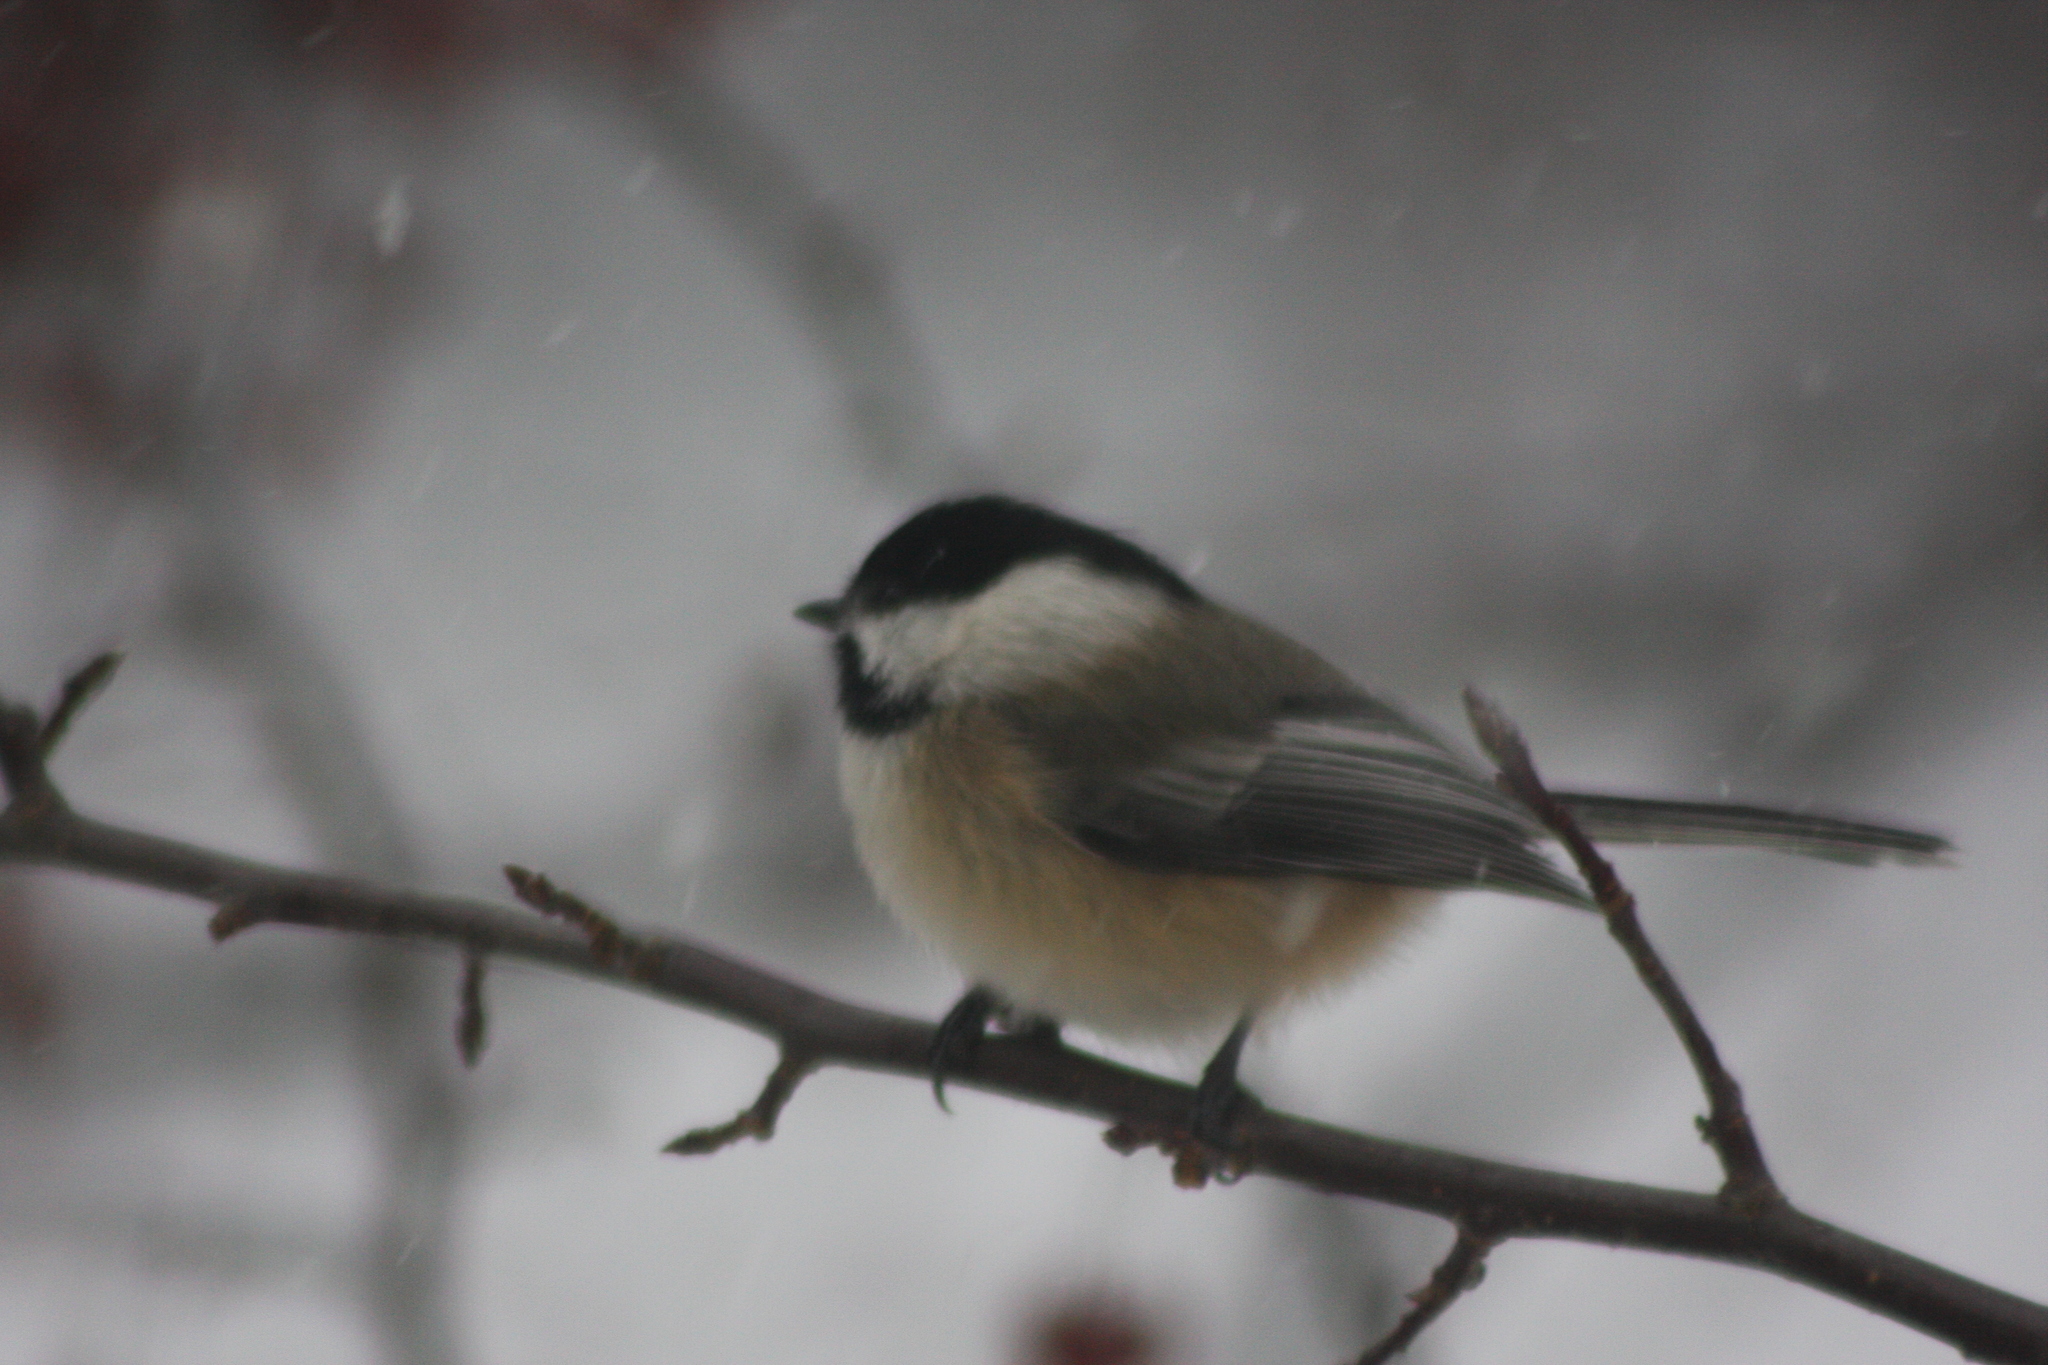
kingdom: Animalia
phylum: Chordata
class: Aves
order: Passeriformes
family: Paridae
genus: Poecile
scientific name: Poecile atricapillus
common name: Black-capped chickadee
